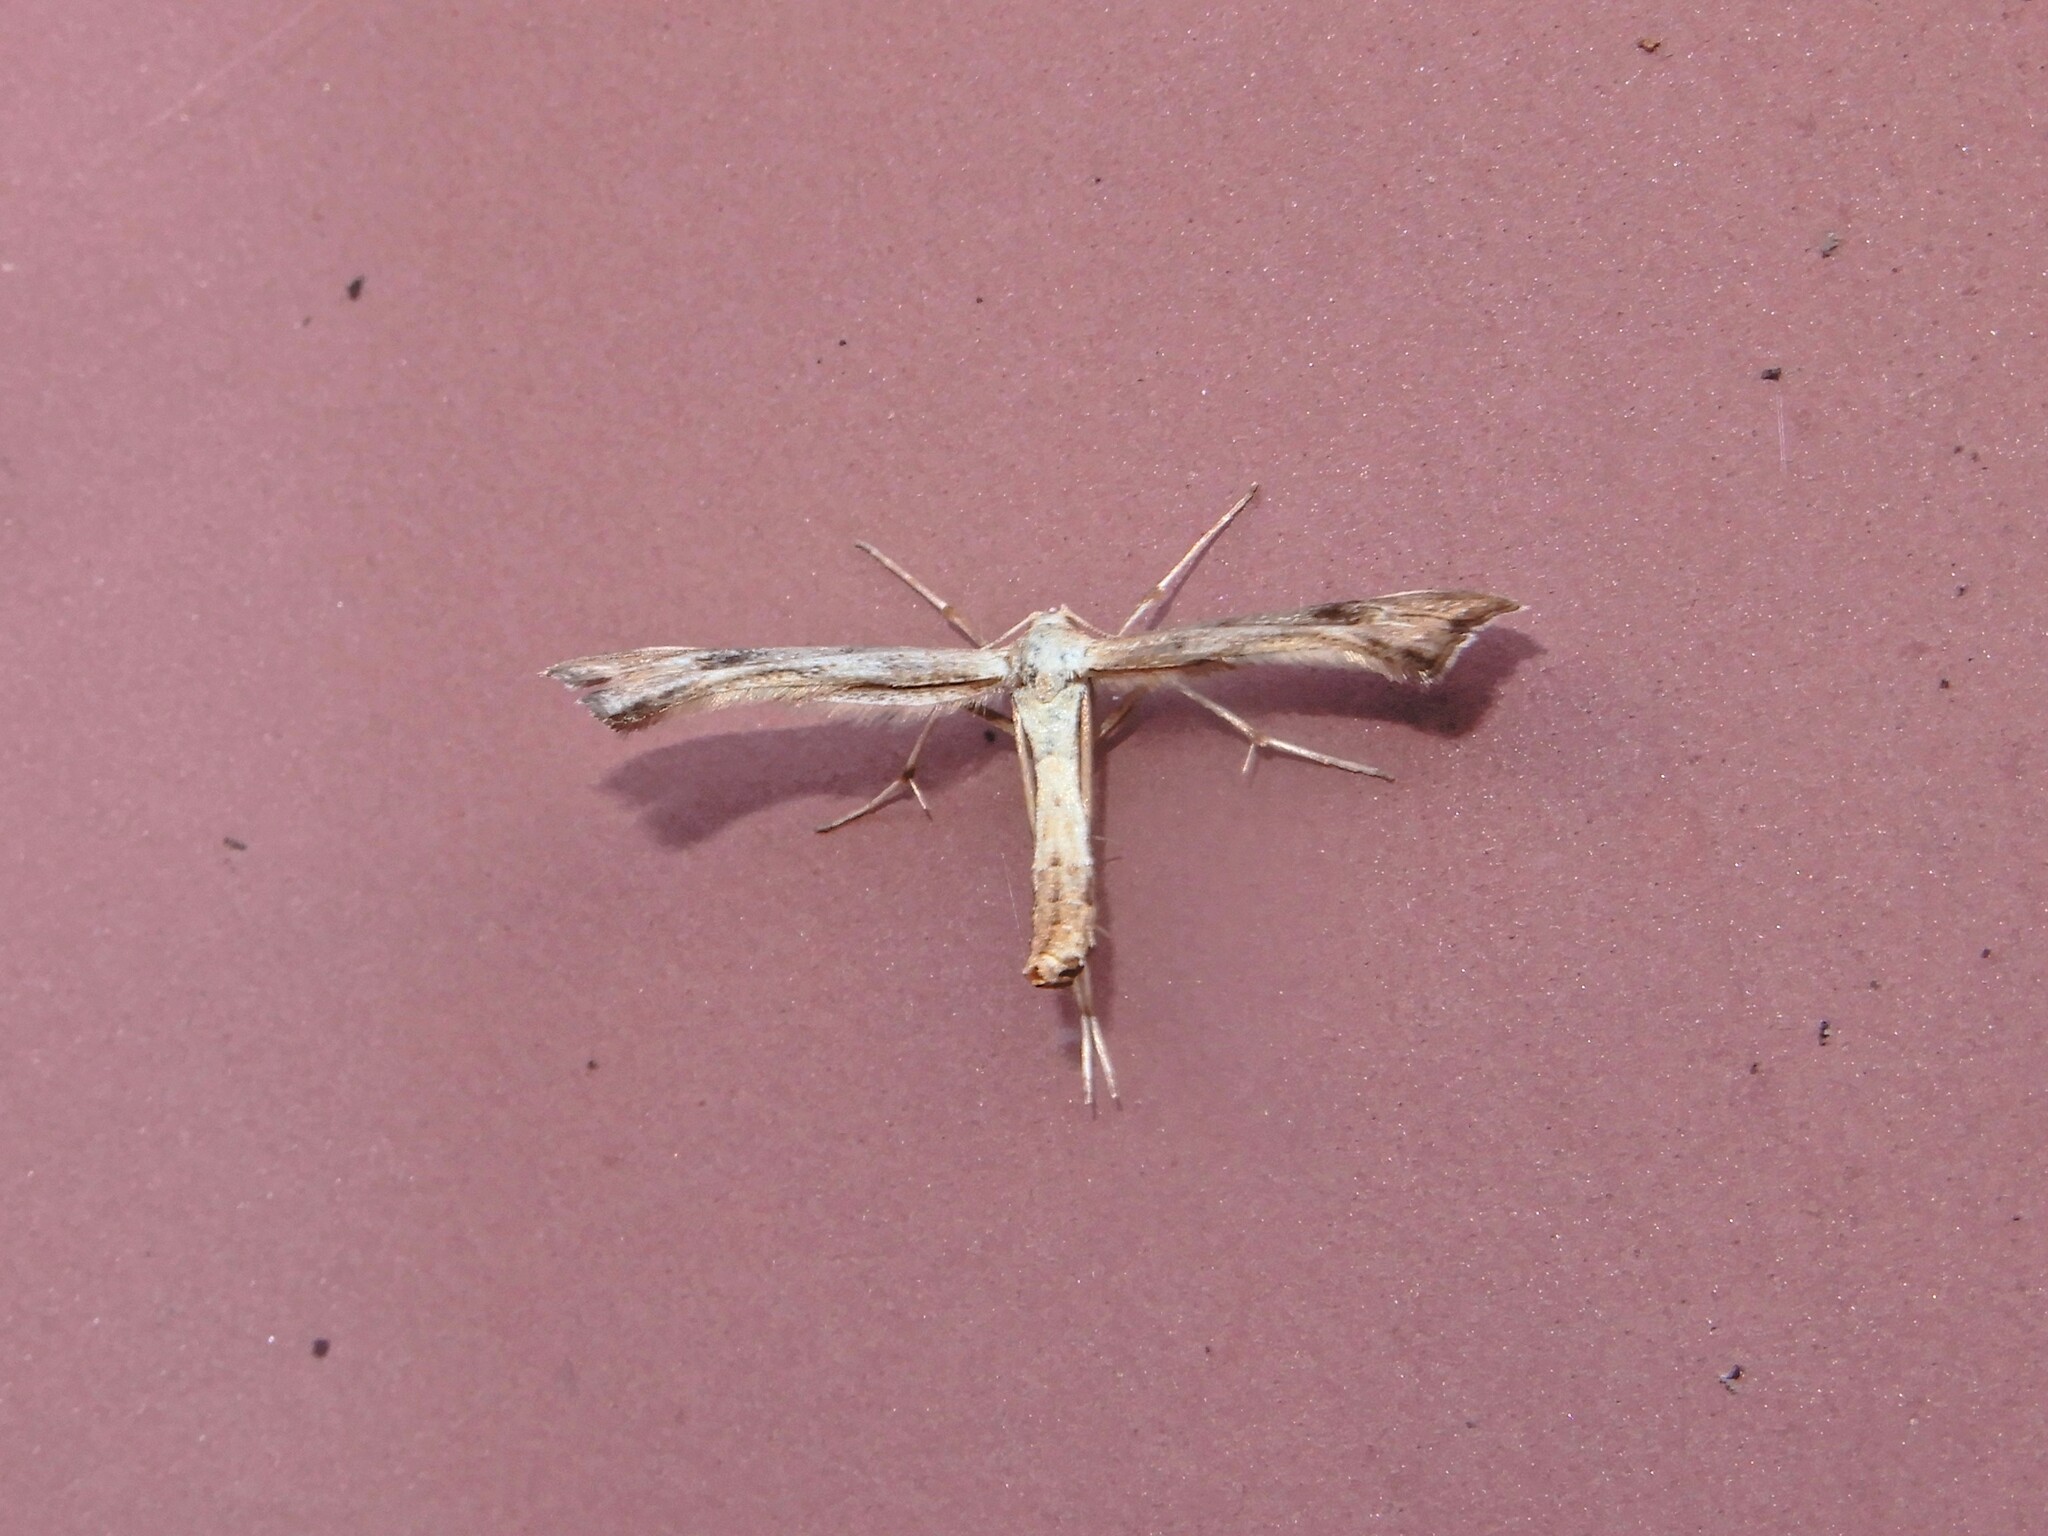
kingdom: Animalia
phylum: Arthropoda
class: Insecta
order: Lepidoptera
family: Pterophoridae
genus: Platyptilia
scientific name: Platyptilia isodactylus
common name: Hoary plume
